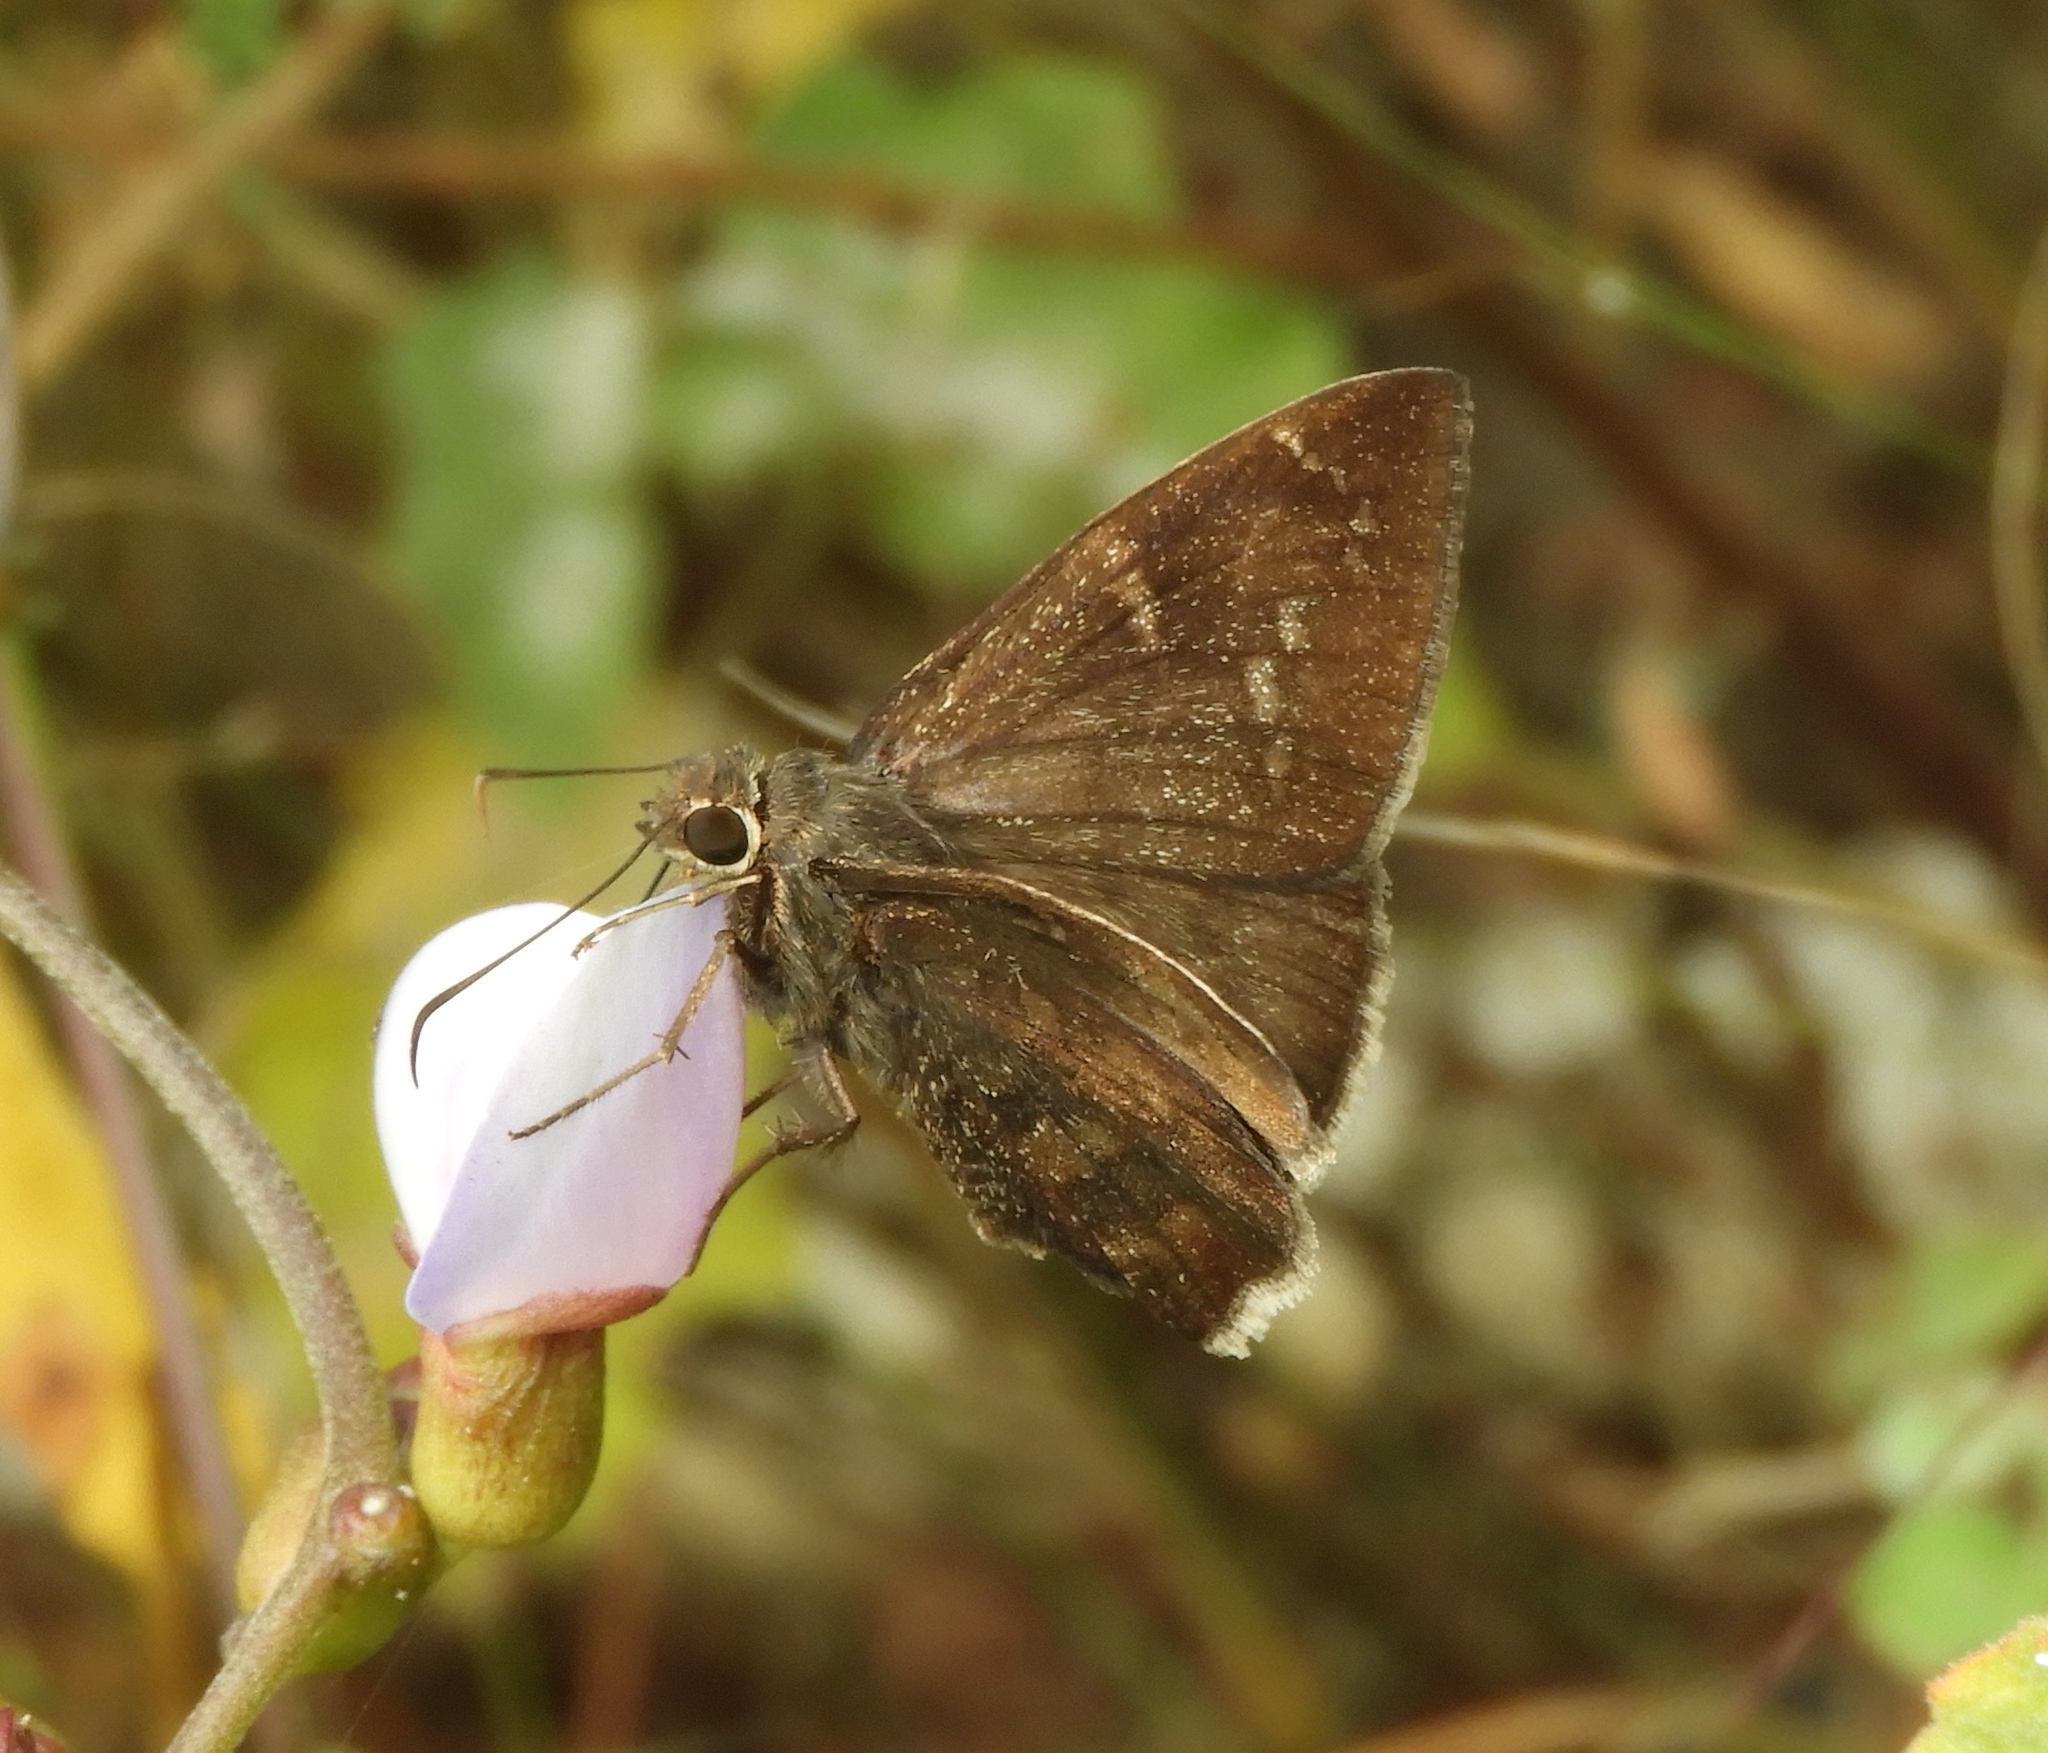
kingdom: Animalia
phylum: Arthropoda
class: Insecta
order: Lepidoptera
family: Hesperiidae
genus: Achalarus
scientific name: Achalarus Murgaria albociliatus
